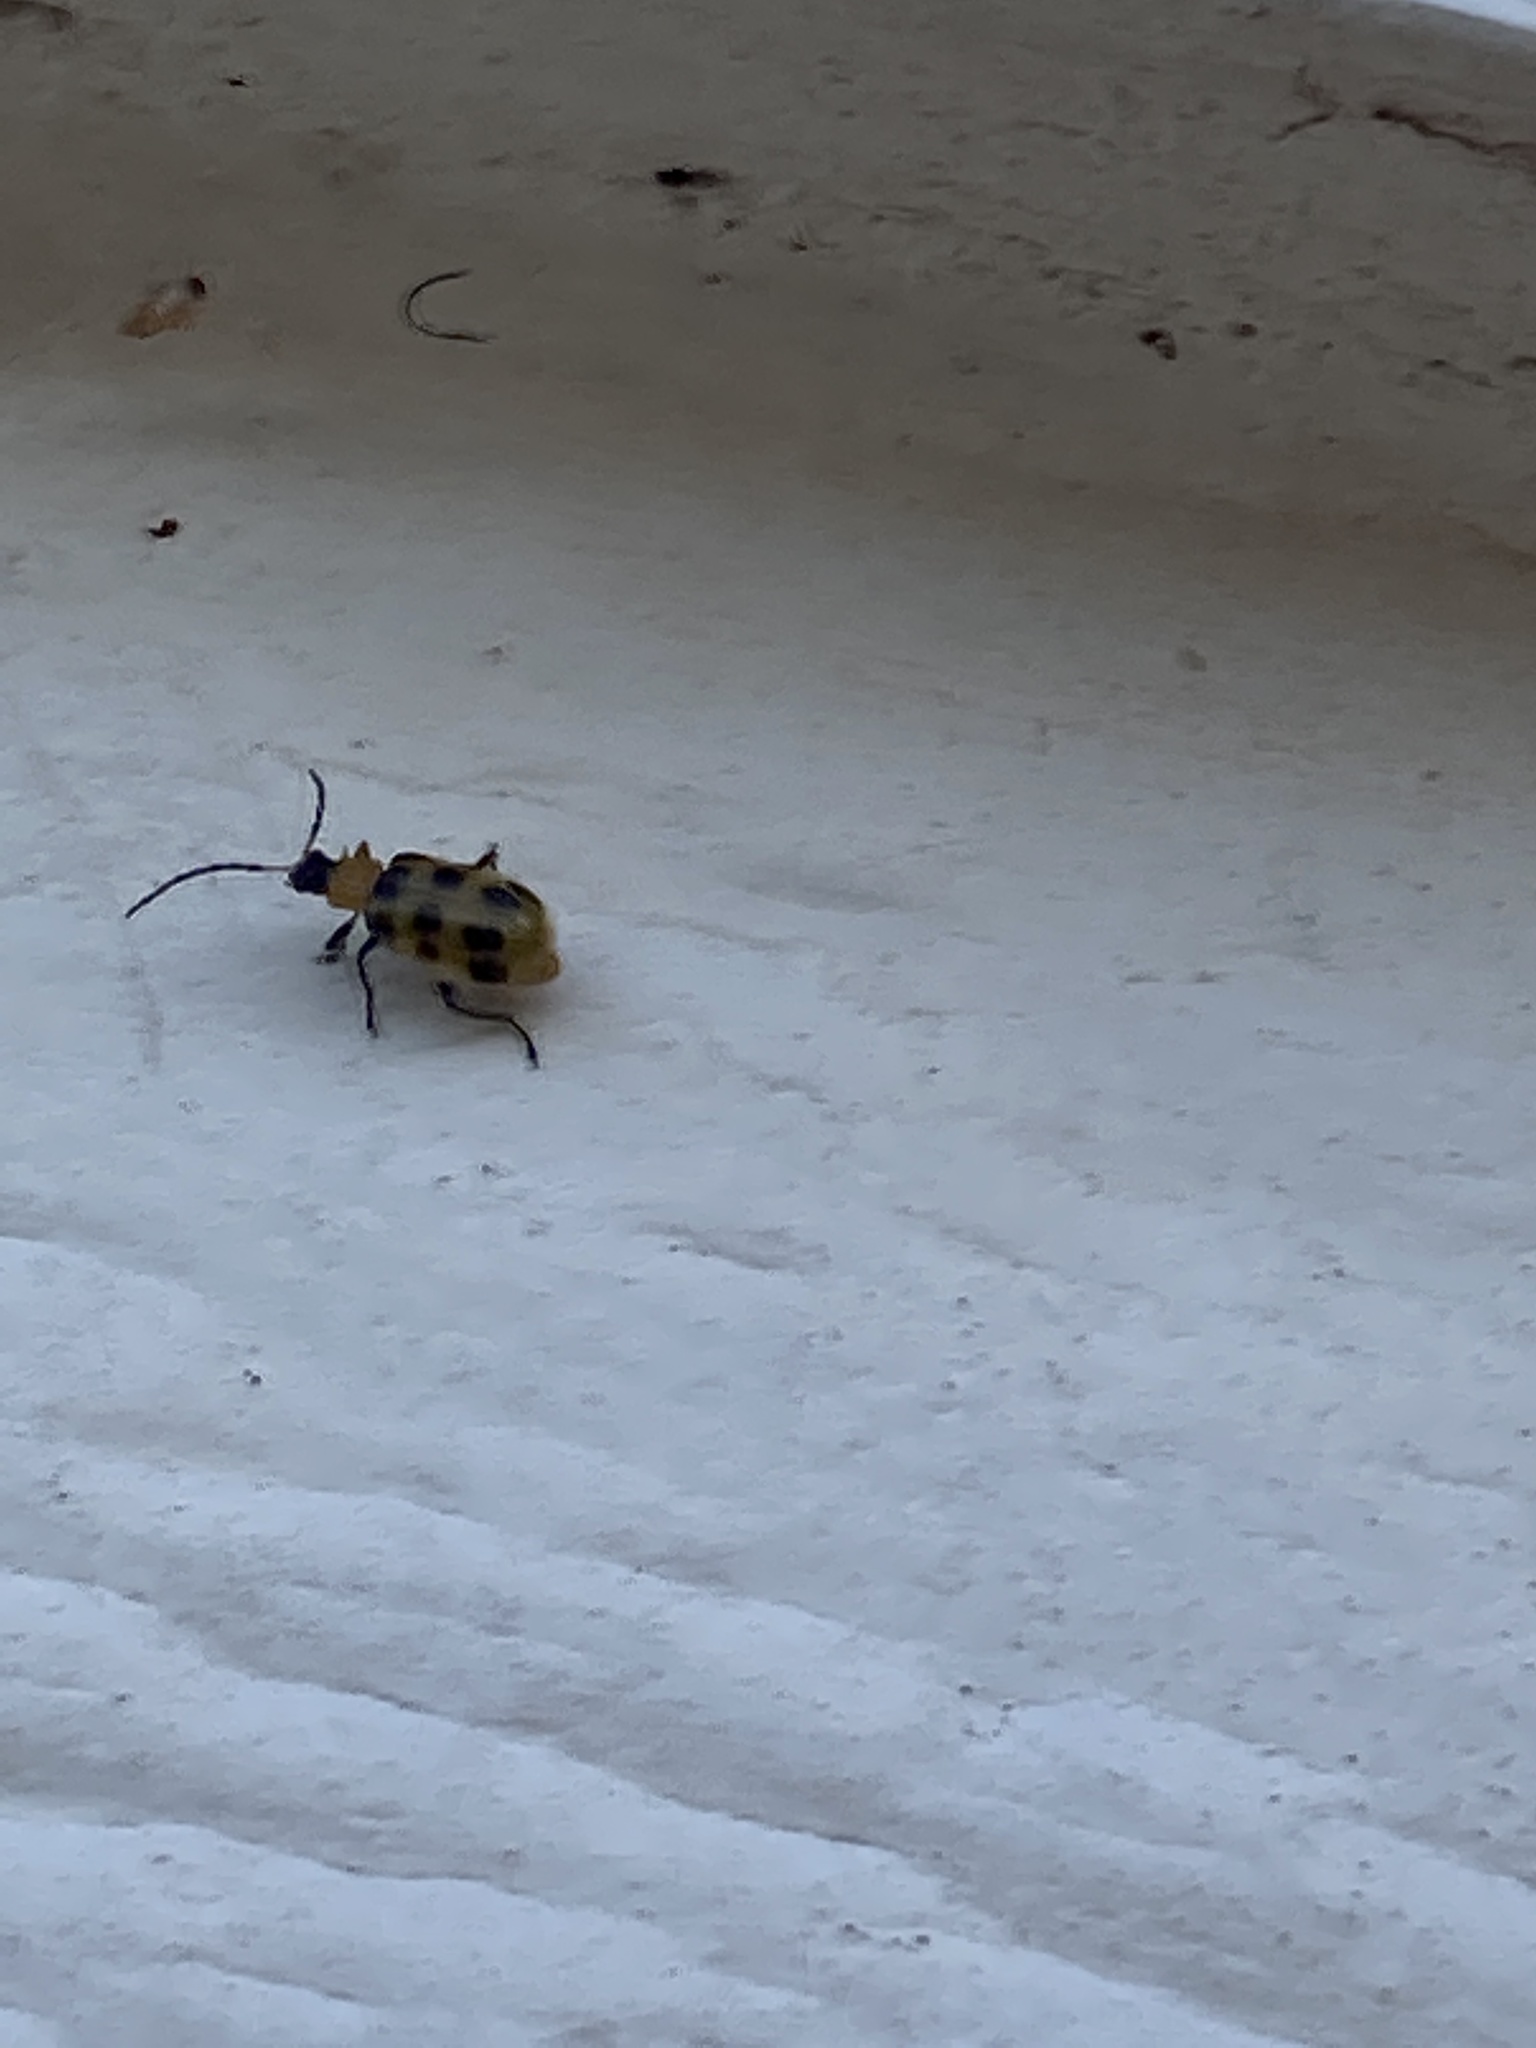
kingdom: Animalia
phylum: Arthropoda
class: Insecta
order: Coleoptera
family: Chrysomelidae
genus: Diabrotica
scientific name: Diabrotica undecimpunctata
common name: Spotted cucumber beetle
